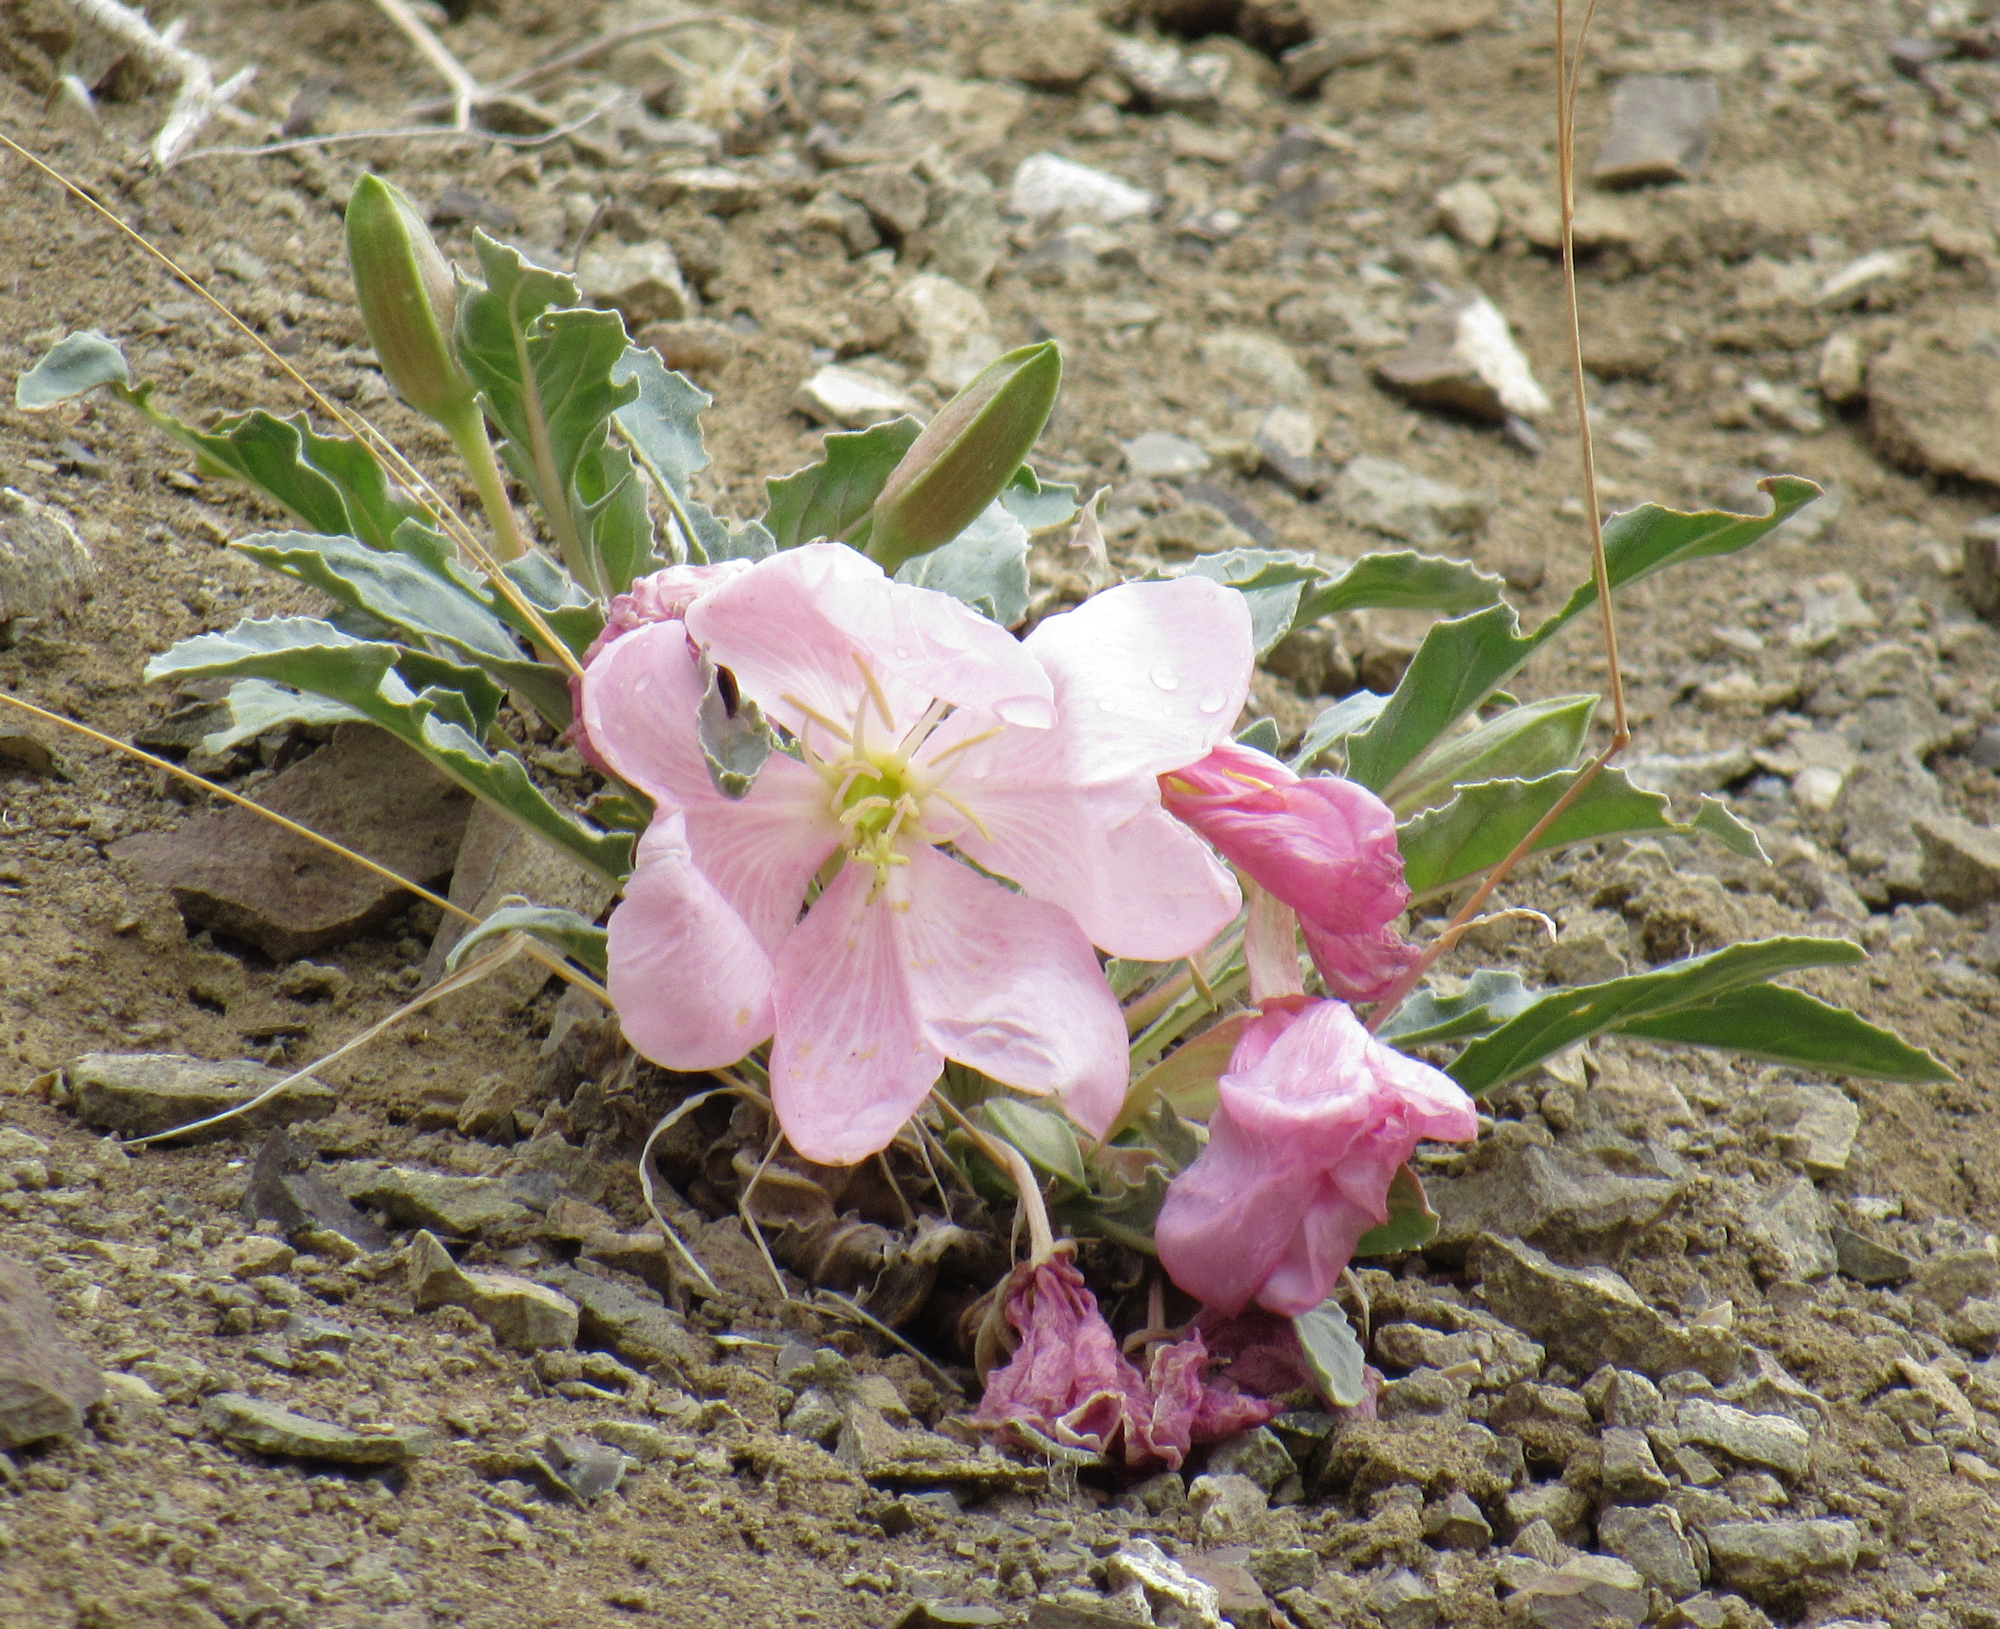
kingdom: Plantae
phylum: Tracheophyta
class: Magnoliopsida
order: Myrtales
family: Onagraceae
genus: Oenothera
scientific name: Oenothera cespitosa
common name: Tufted evening-primrose
